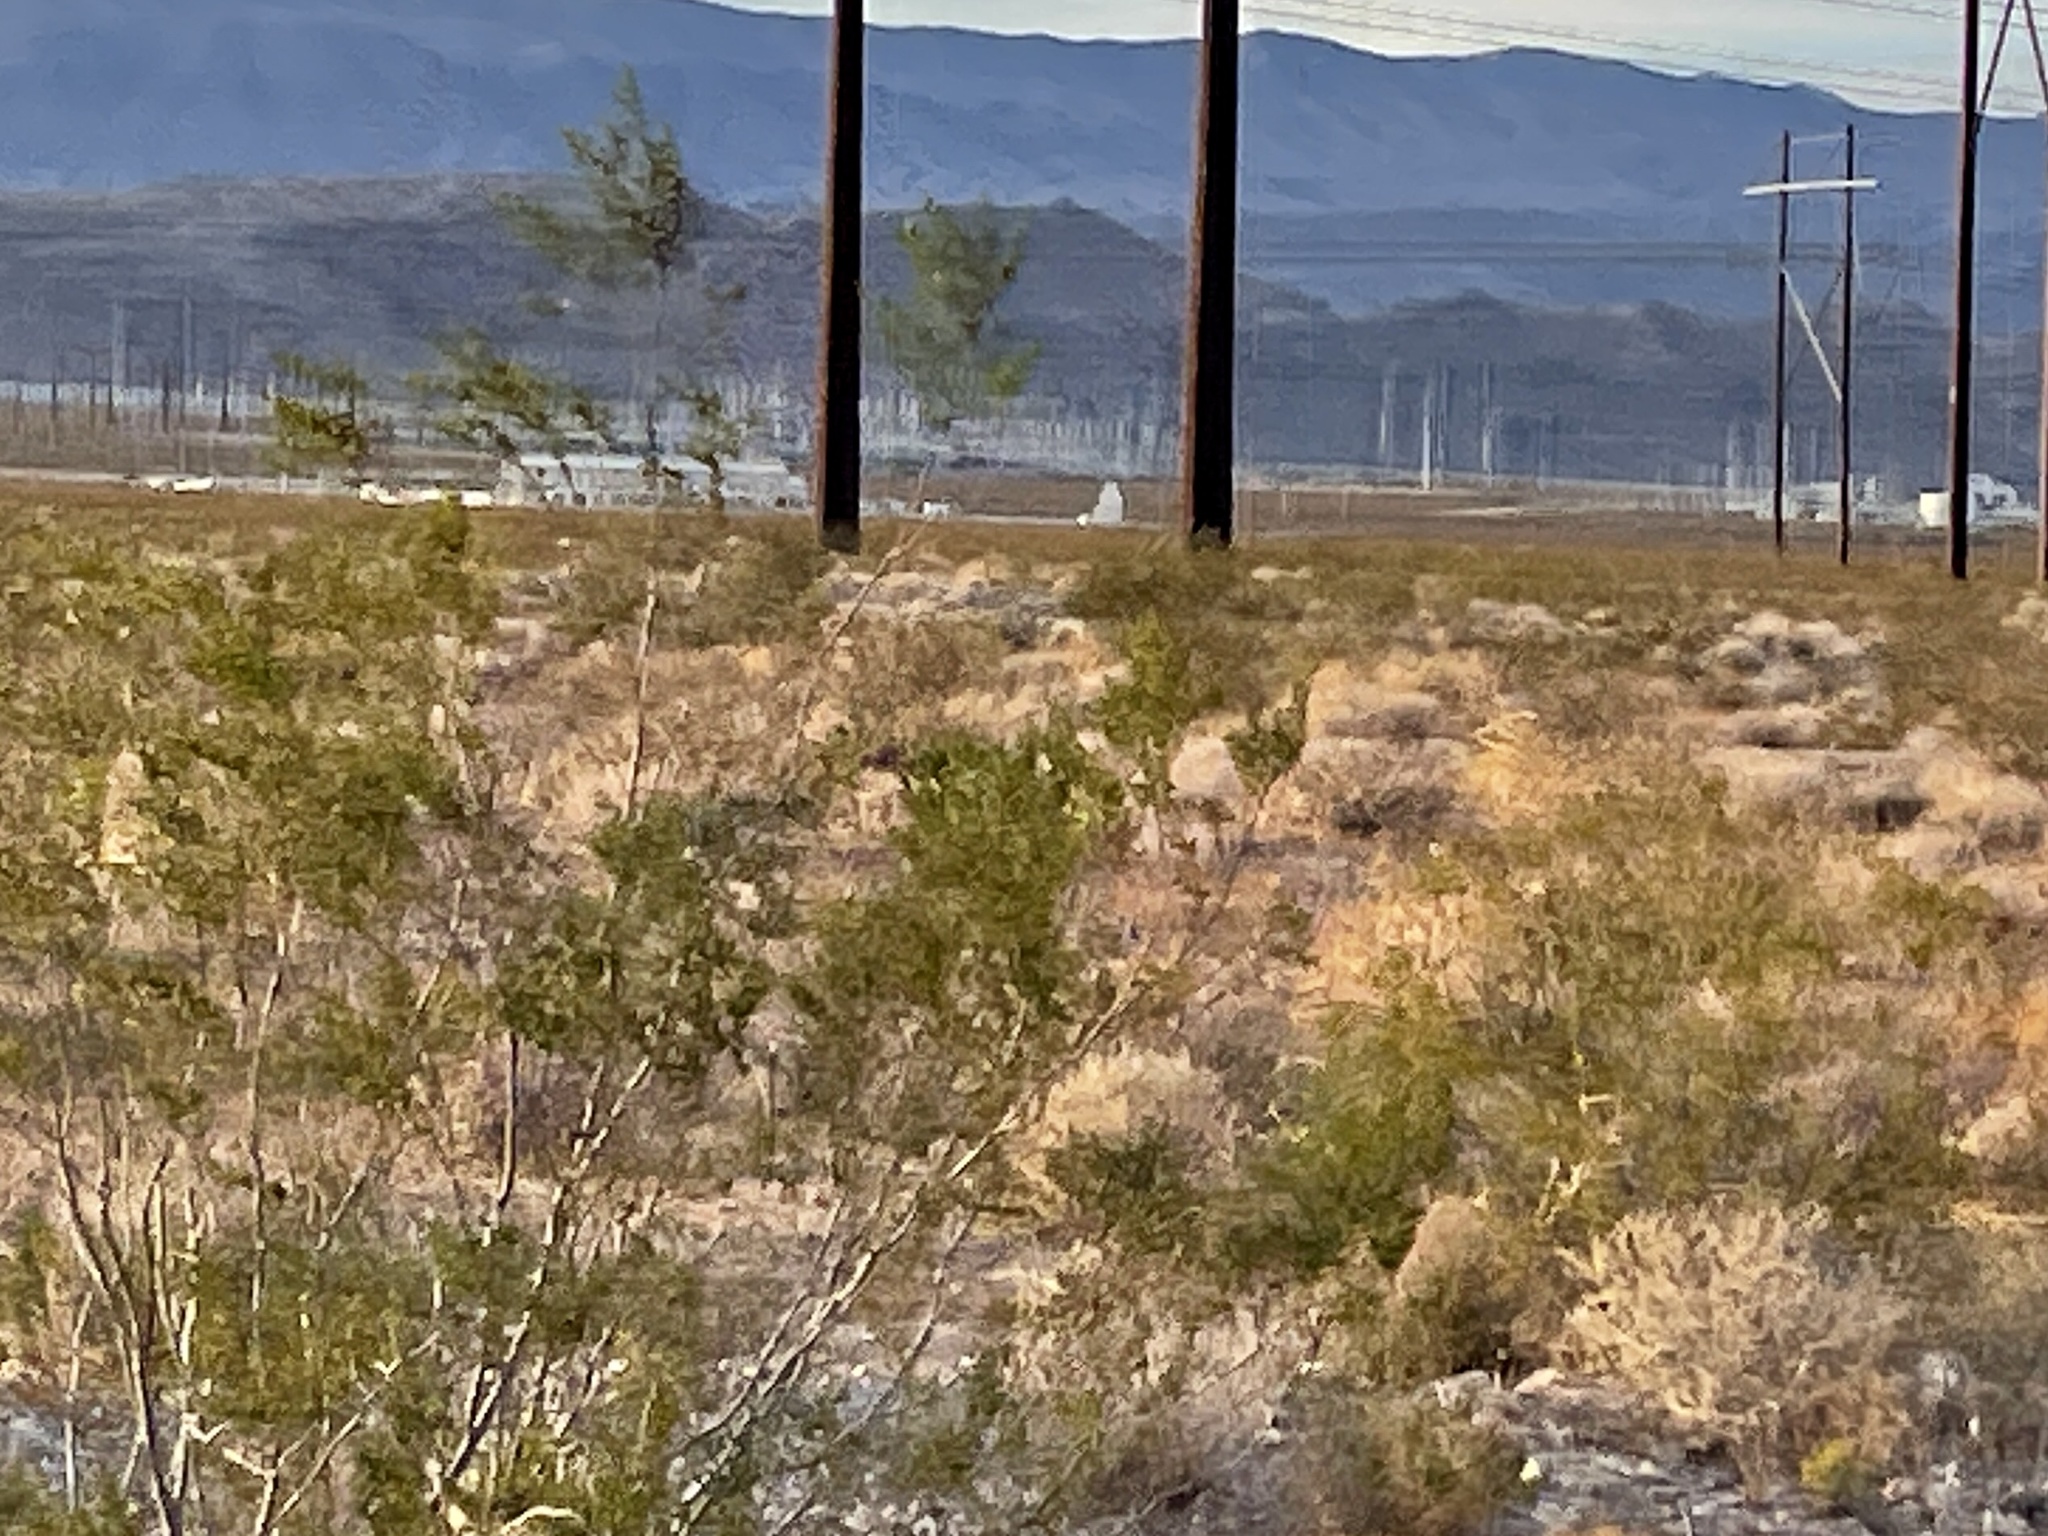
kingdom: Plantae
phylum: Tracheophyta
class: Magnoliopsida
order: Zygophyllales
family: Zygophyllaceae
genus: Larrea
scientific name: Larrea tridentata
